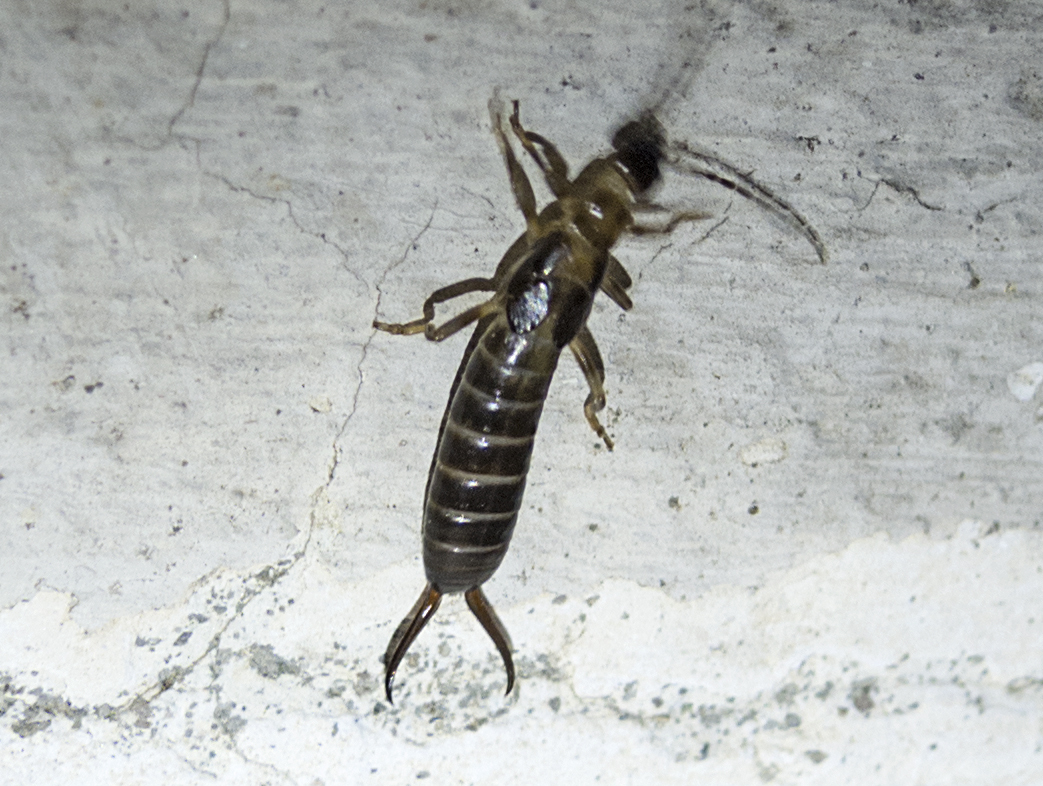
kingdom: Animalia
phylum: Arthropoda
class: Insecta
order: Dermaptera
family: Forficulidae
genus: Forficula
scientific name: Forficula smyrnensis
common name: Smyrna earwig
